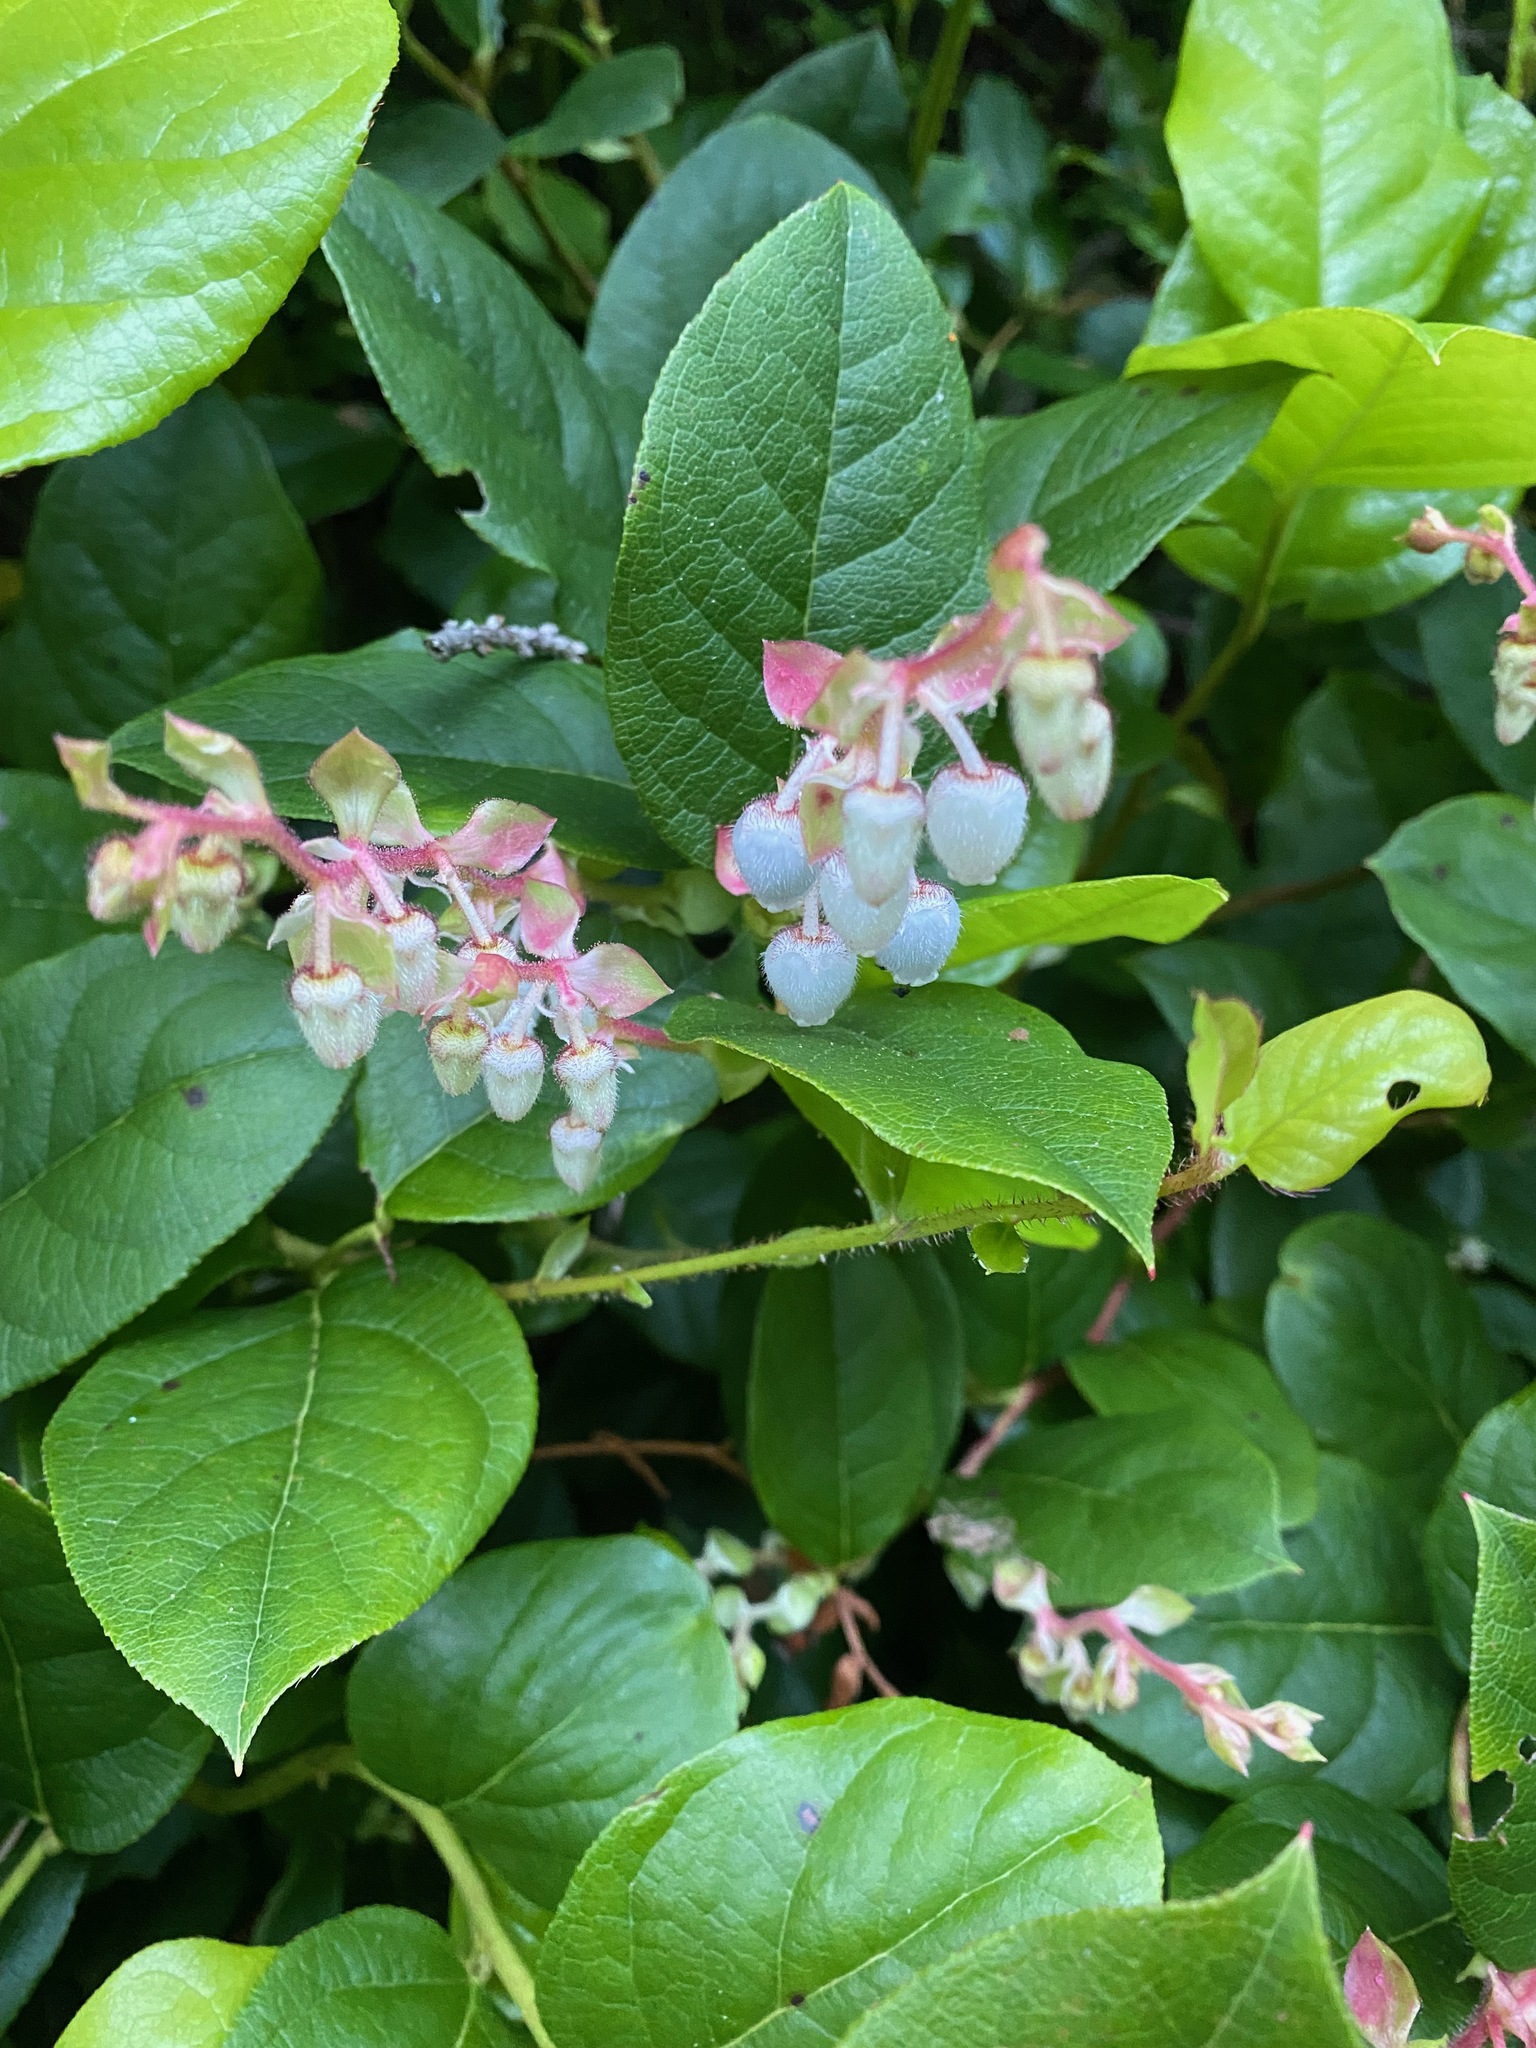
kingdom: Plantae
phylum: Tracheophyta
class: Magnoliopsida
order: Ericales
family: Ericaceae
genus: Gaultheria
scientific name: Gaultheria shallon
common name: Shallon
